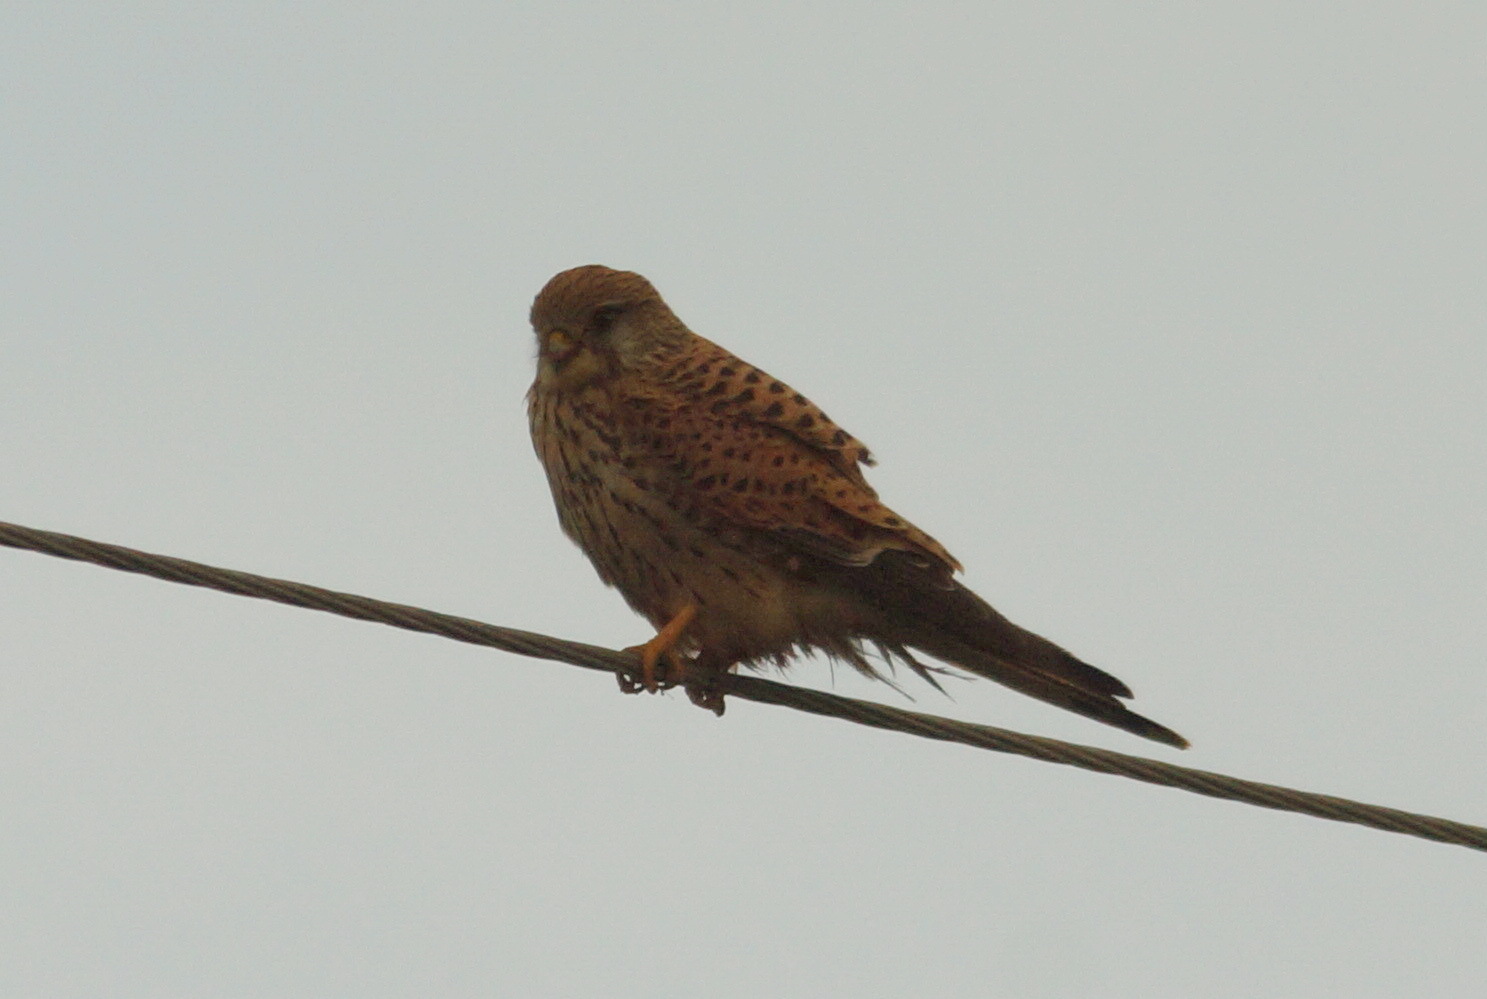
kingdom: Animalia
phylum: Chordata
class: Aves
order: Falconiformes
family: Falconidae
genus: Falco
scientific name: Falco tinnunculus
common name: Common kestrel
